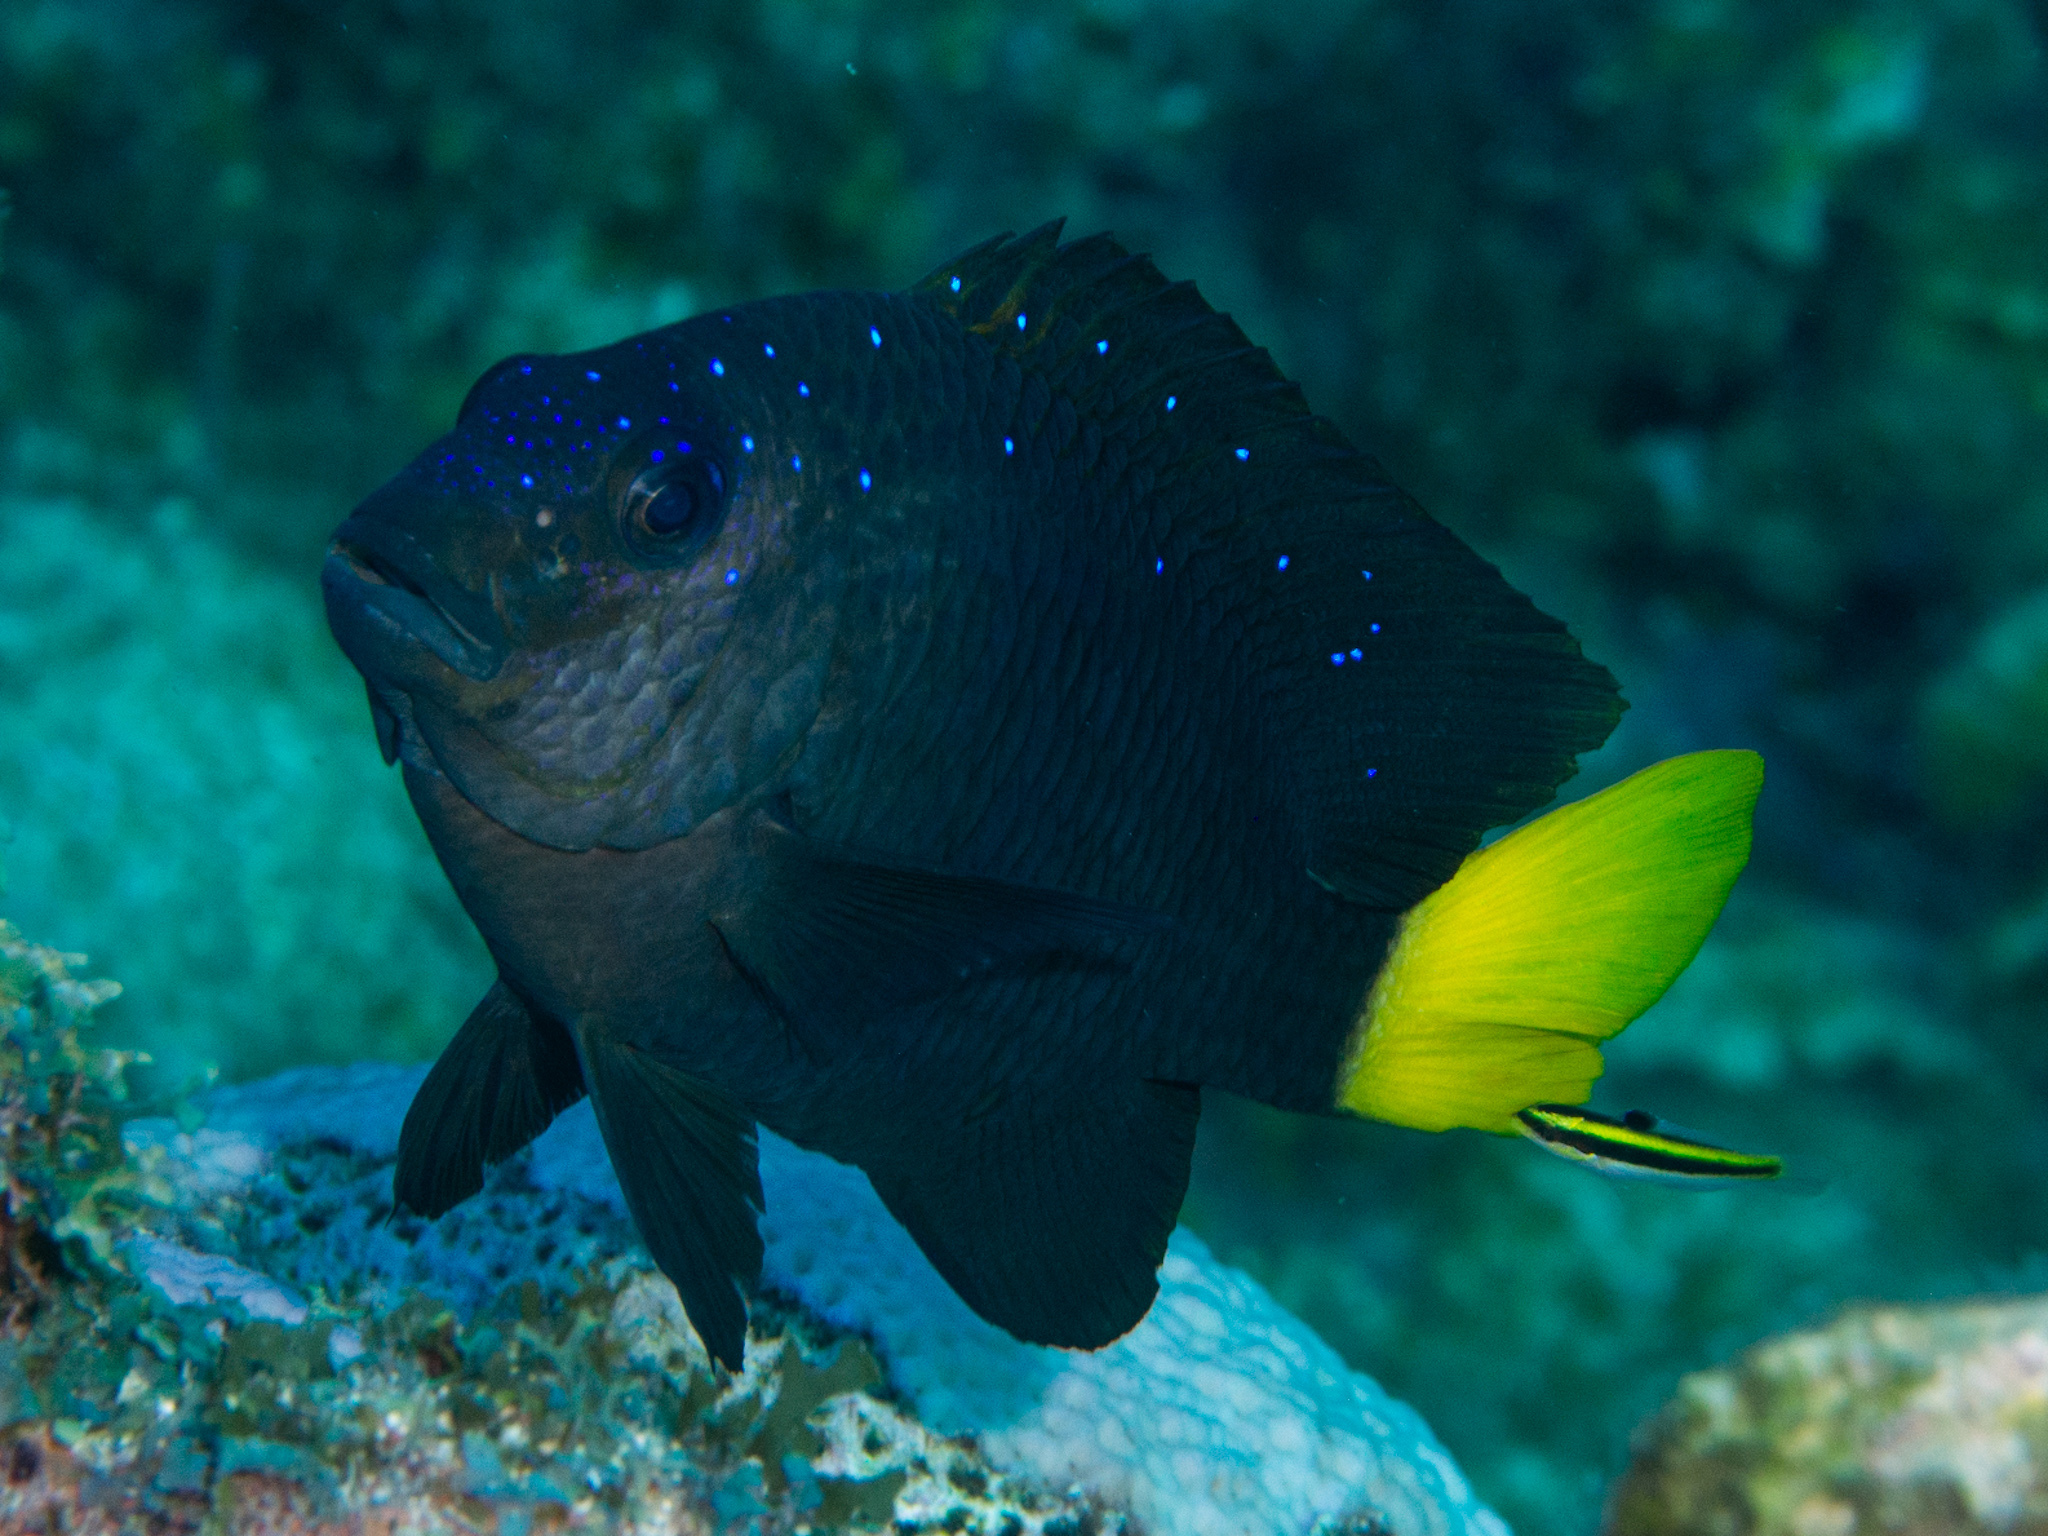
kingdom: Animalia
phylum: Chordata
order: Perciformes
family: Pomacentridae
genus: Microspathodon
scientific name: Microspathodon chrysurus
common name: Yellowtail damselfish
